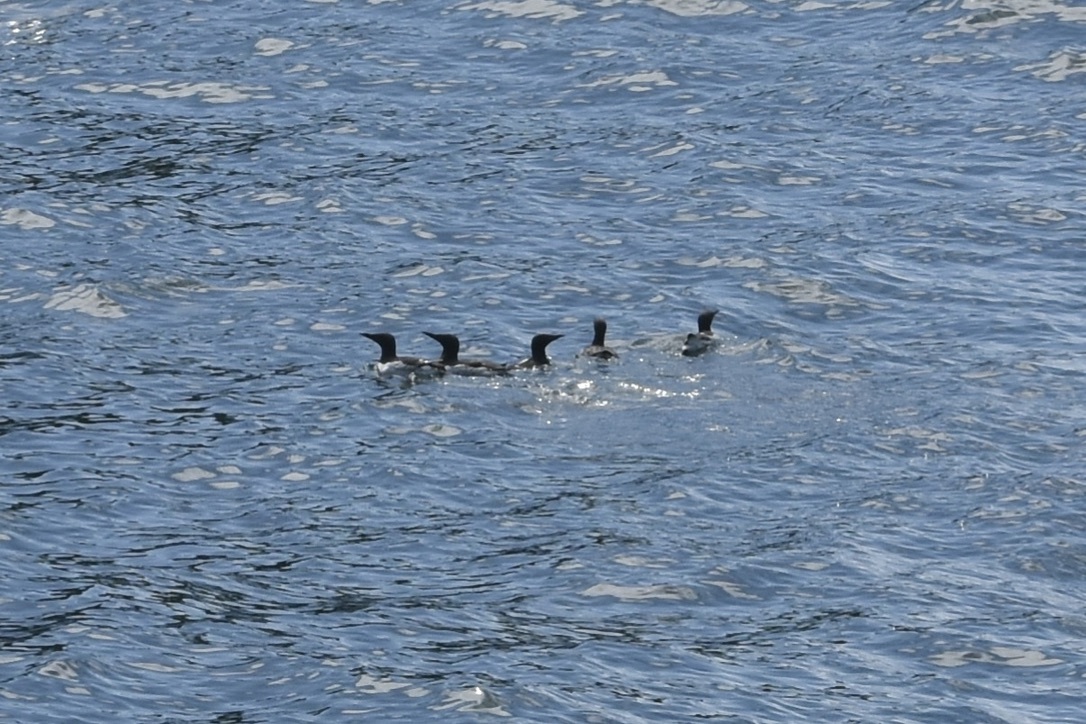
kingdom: Animalia
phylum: Chordata
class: Aves
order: Charadriiformes
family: Alcidae
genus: Uria
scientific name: Uria aalge
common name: Common murre
